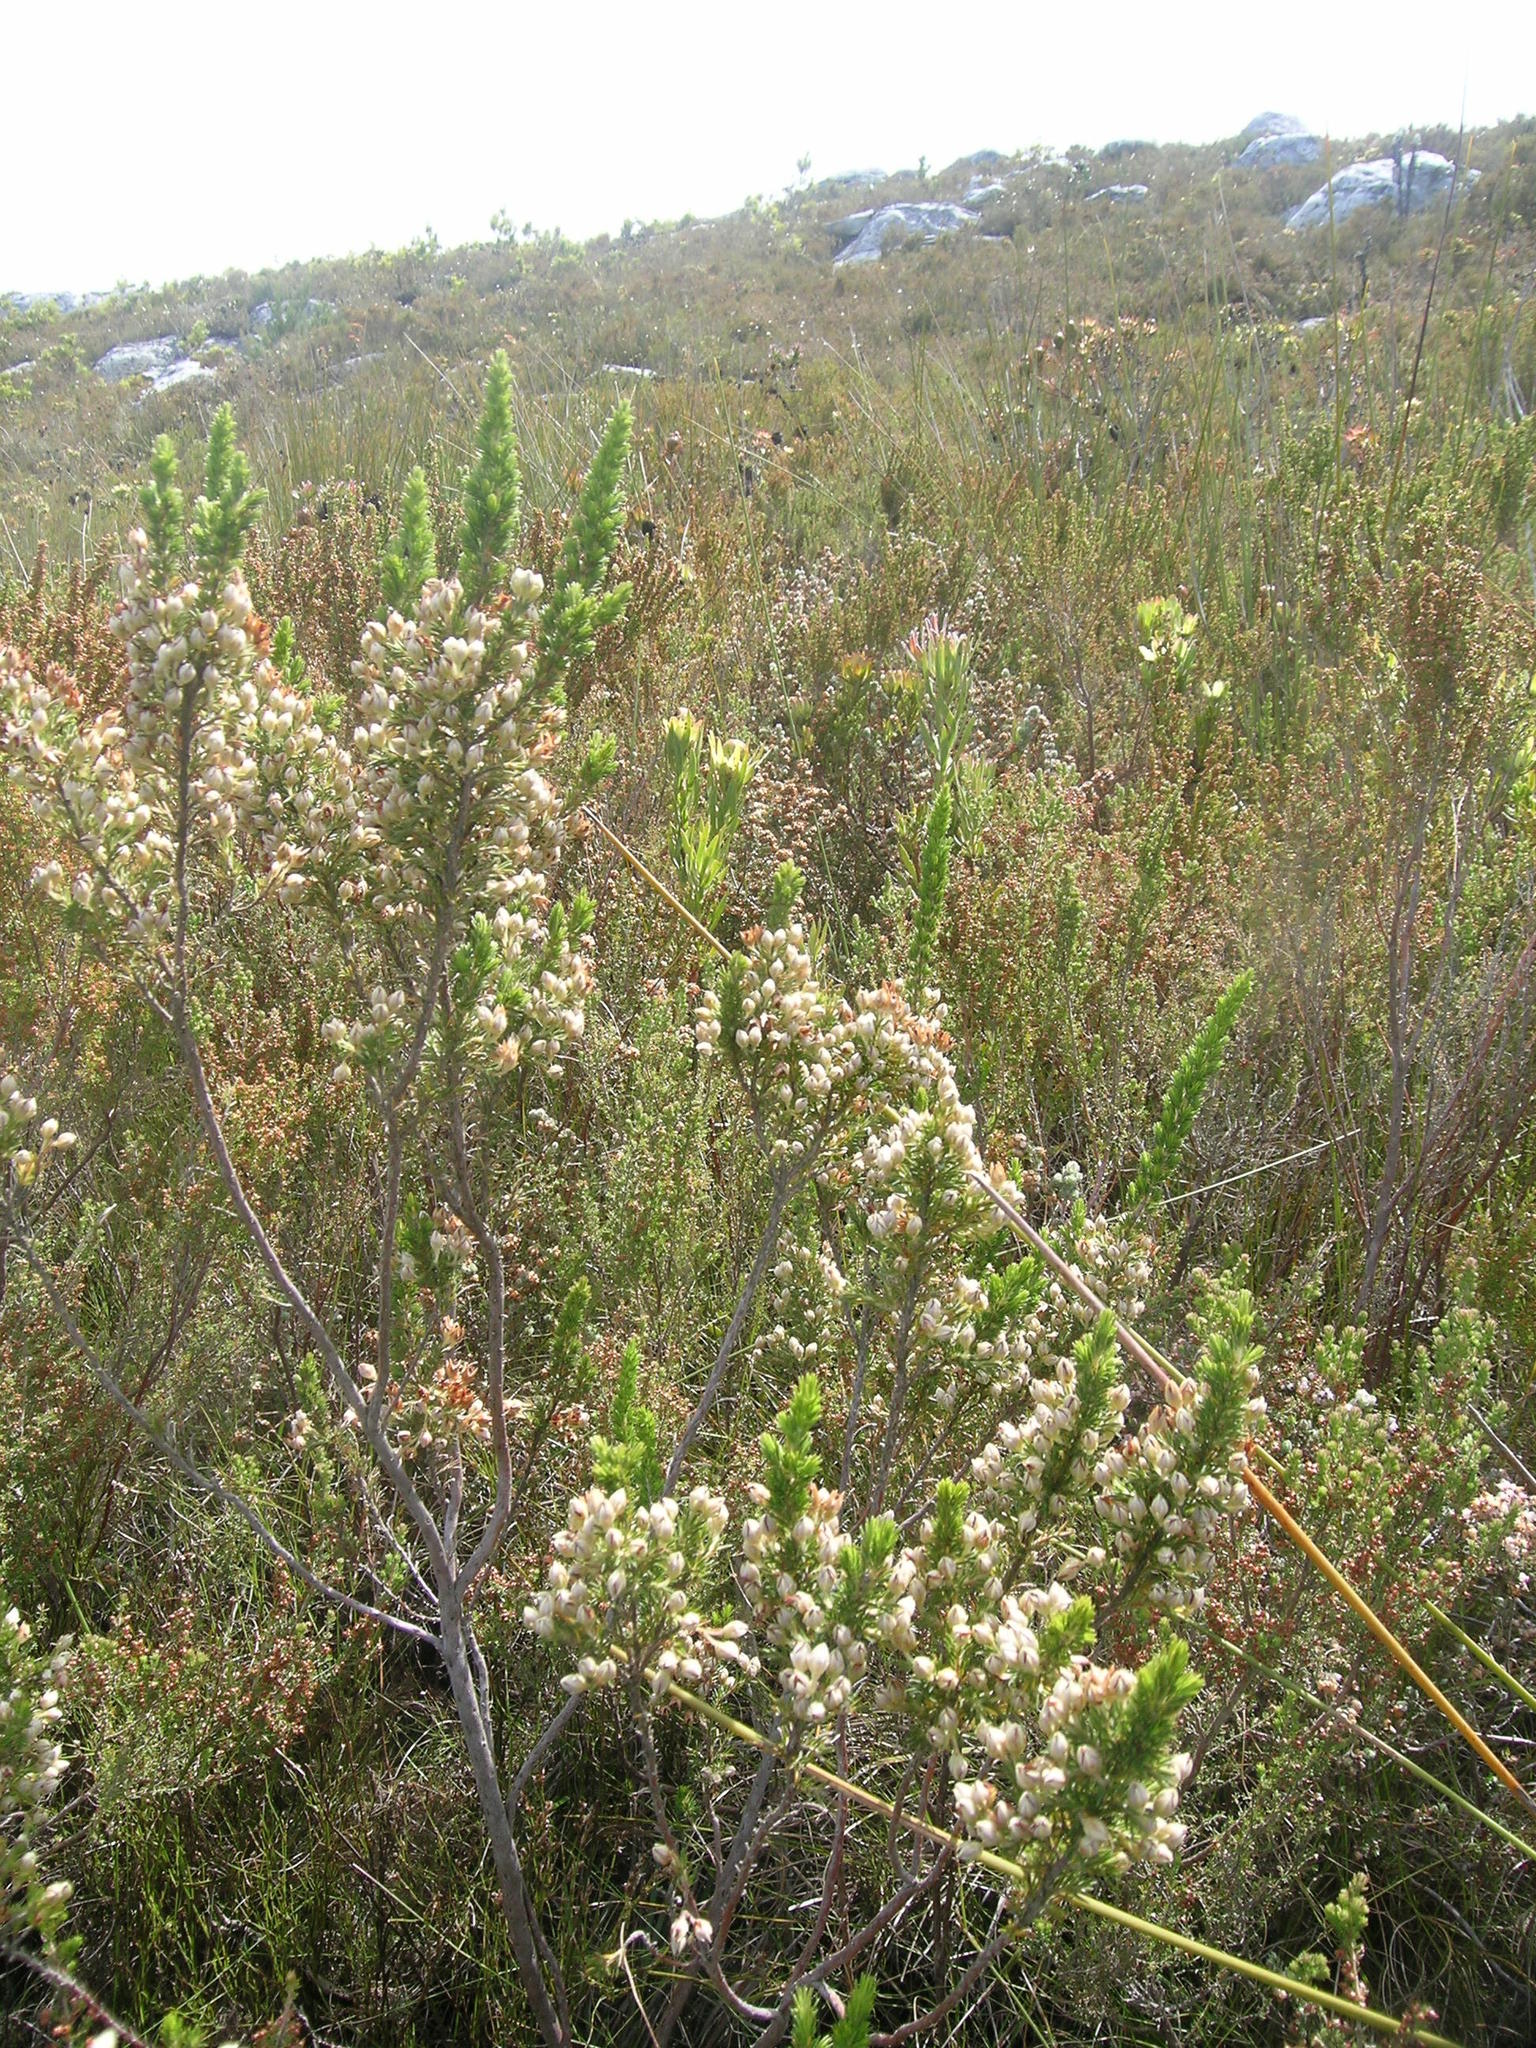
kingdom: Plantae
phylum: Tracheophyta
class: Magnoliopsida
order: Ericales
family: Ericaceae
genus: Erica
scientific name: Erica penicilliformis
